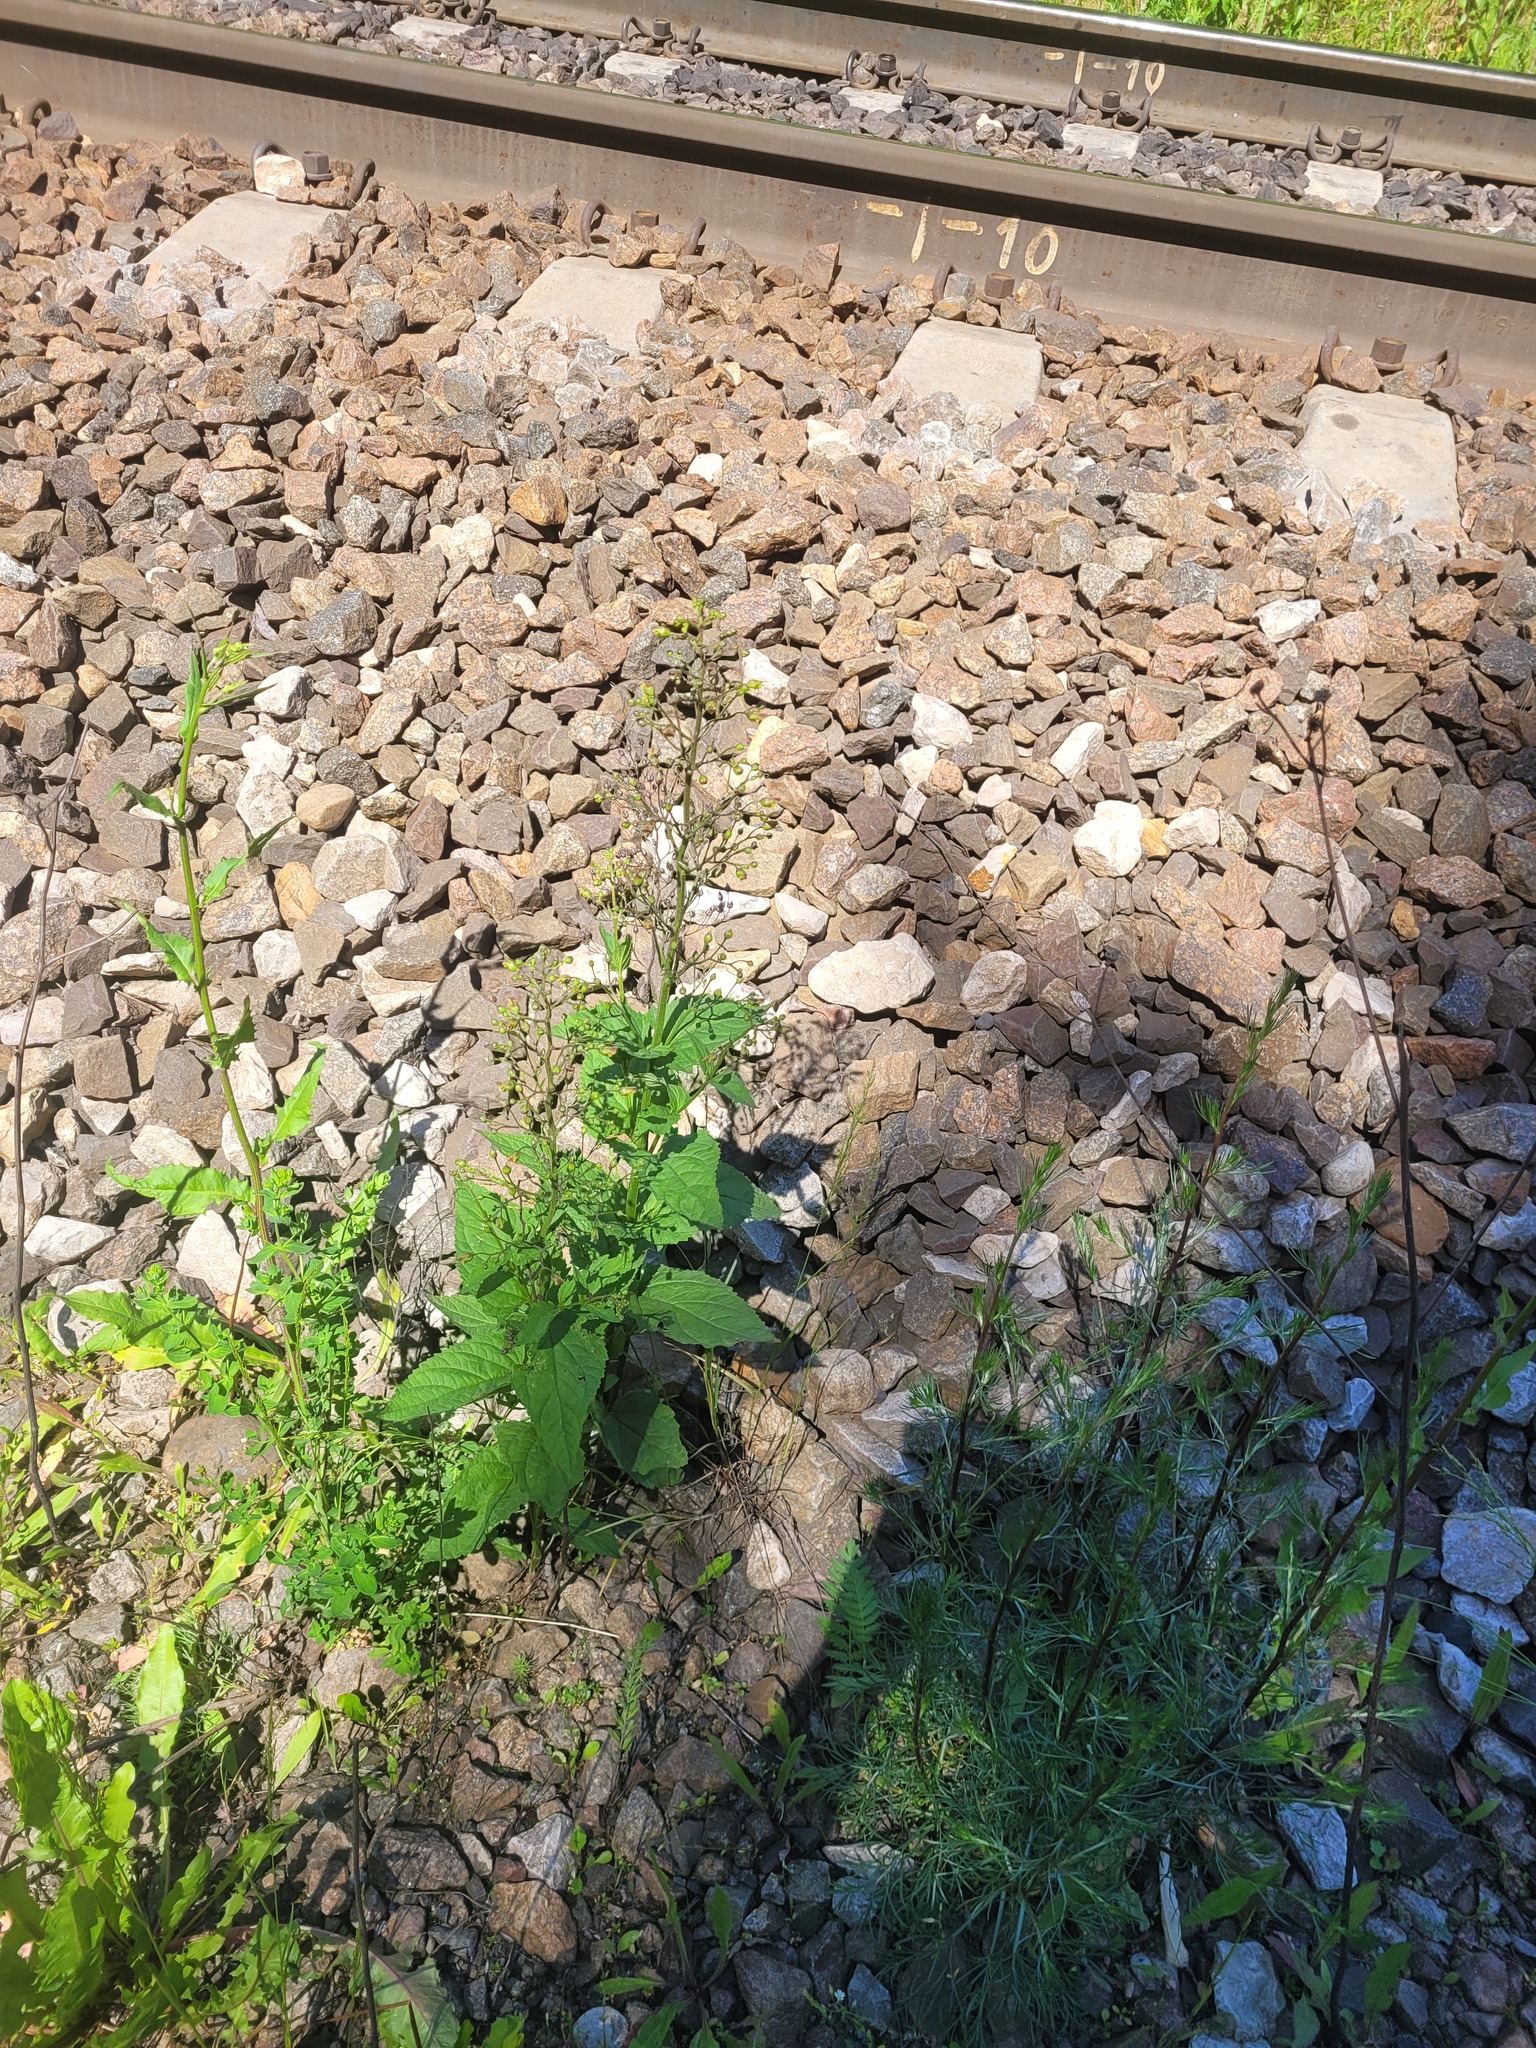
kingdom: Plantae
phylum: Tracheophyta
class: Magnoliopsida
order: Lamiales
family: Scrophulariaceae
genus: Scrophularia
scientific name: Scrophularia nodosa
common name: Common figwort
